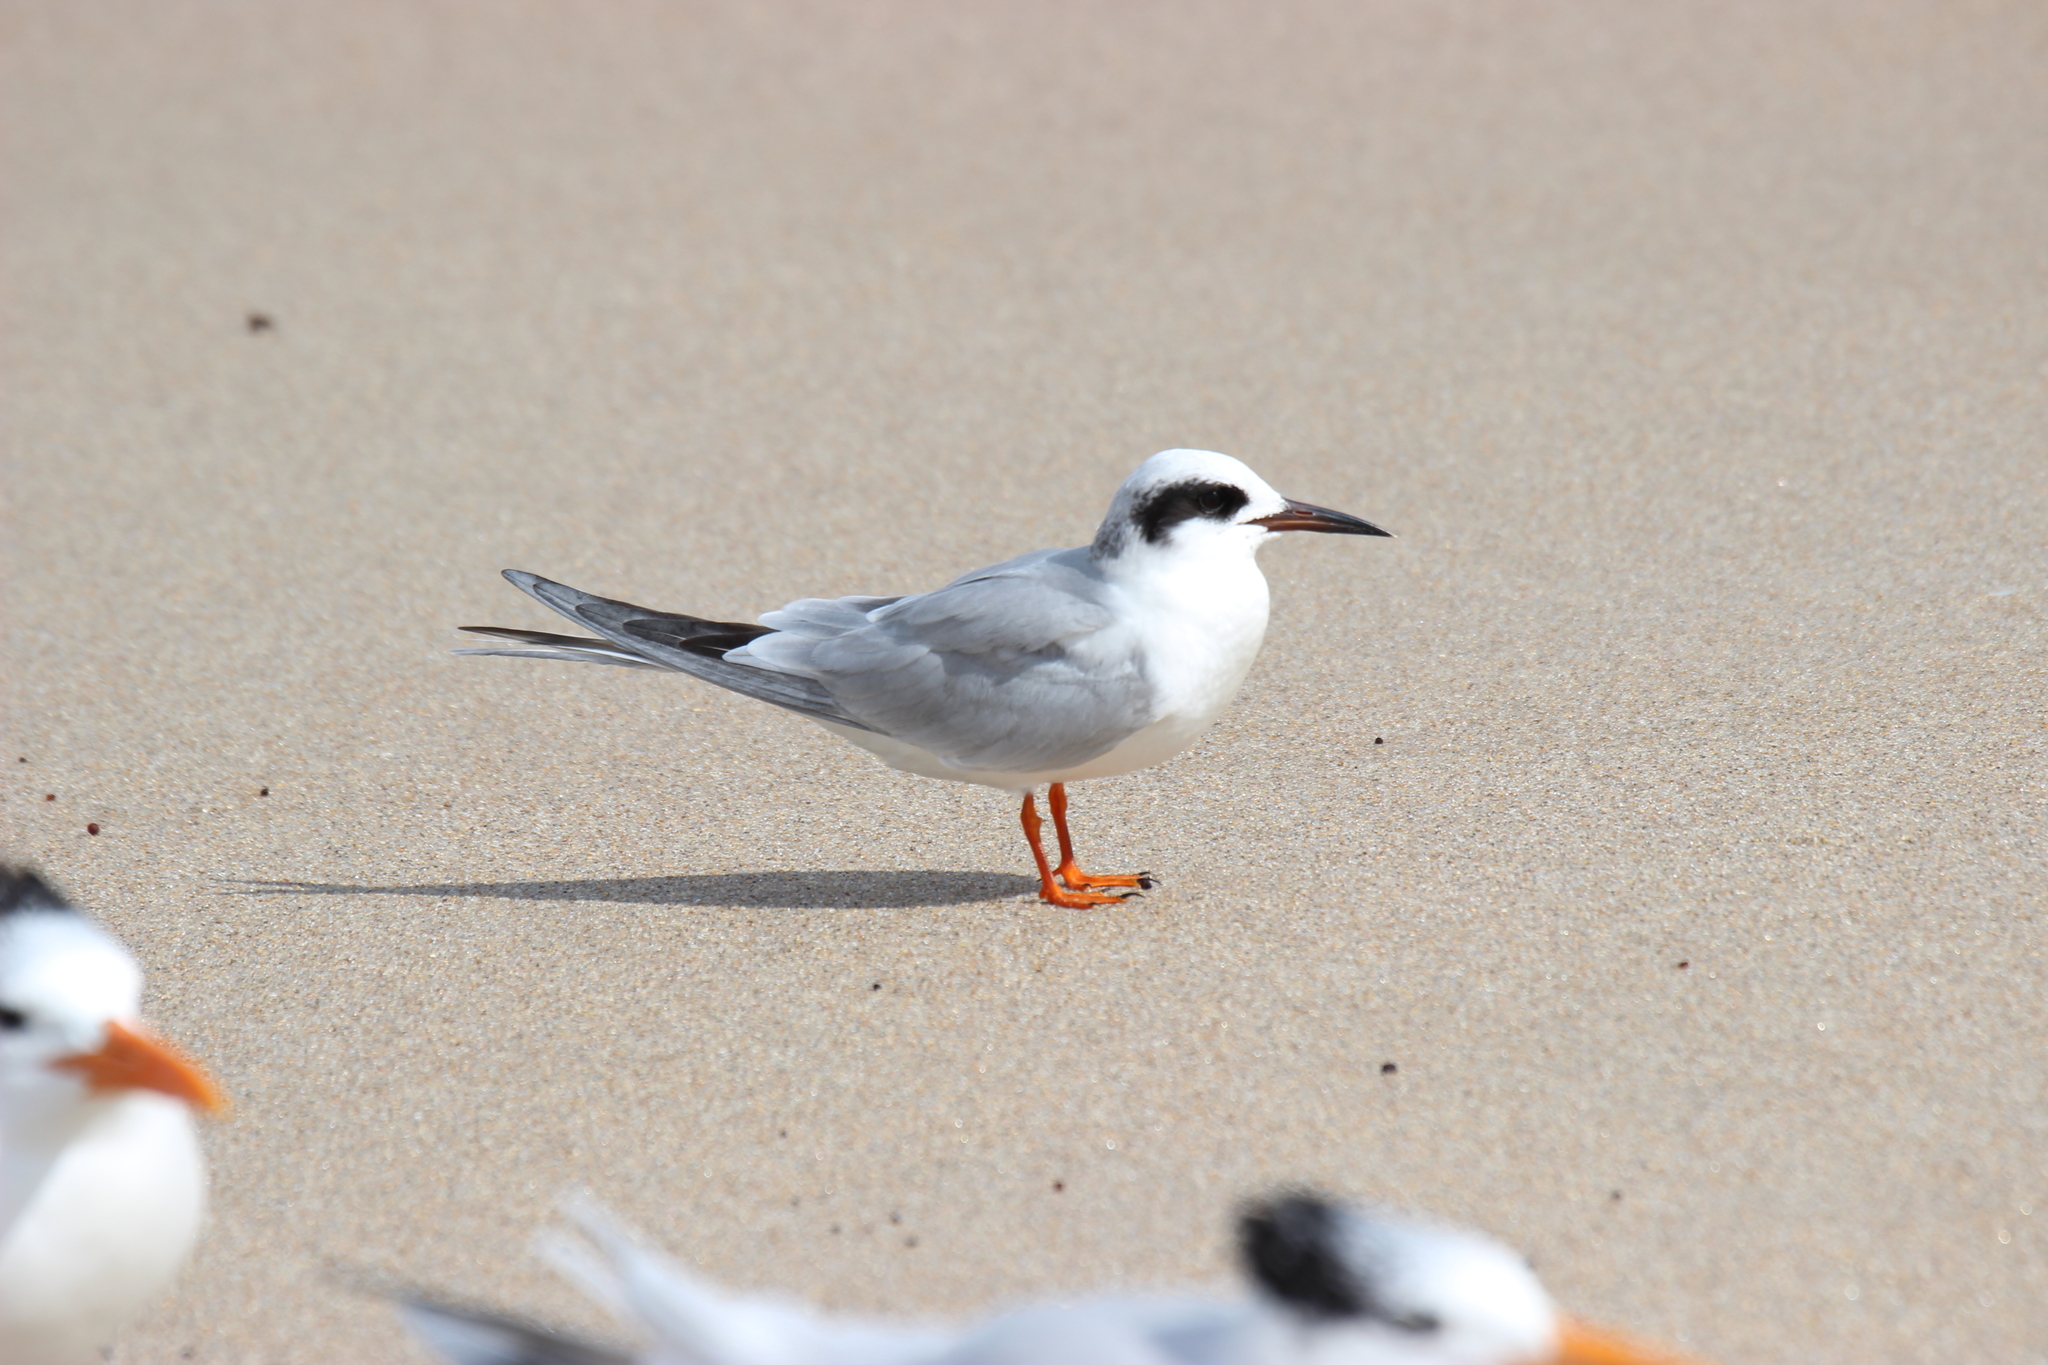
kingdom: Animalia
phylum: Chordata
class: Aves
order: Charadriiformes
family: Laridae
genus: Sterna
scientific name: Sterna forsteri
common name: Forster's tern
